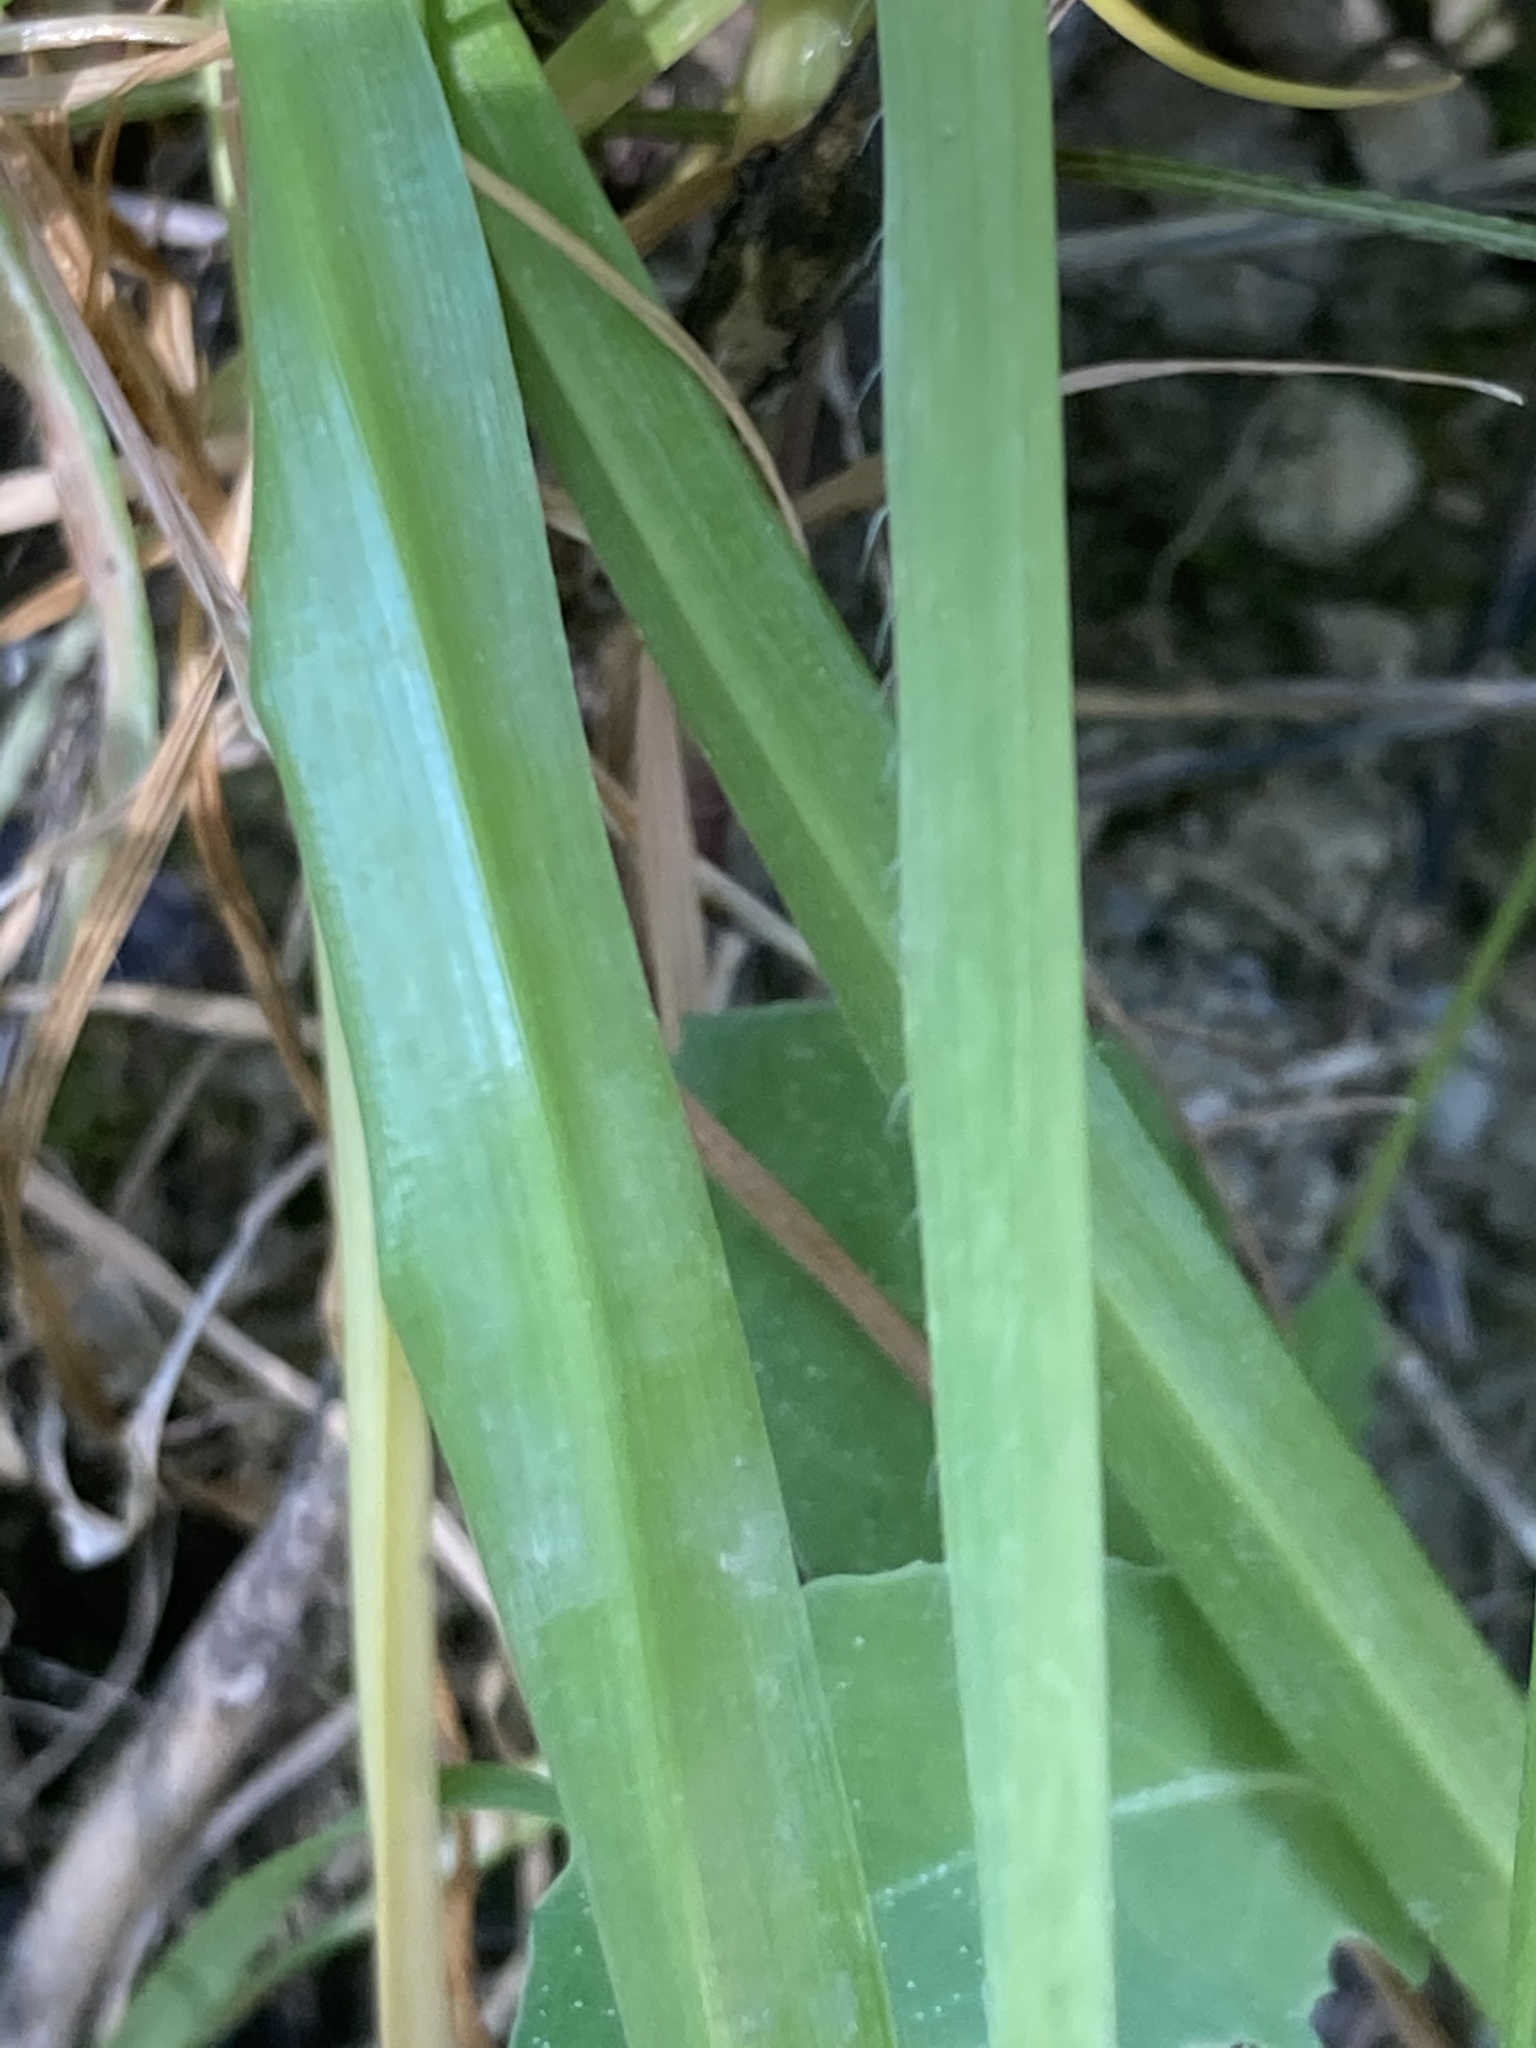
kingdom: Plantae
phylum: Tracheophyta
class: Liliopsida
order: Asparagales
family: Amaryllidaceae
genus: Allium
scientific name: Allium trifoliatum
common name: Pink garlic
